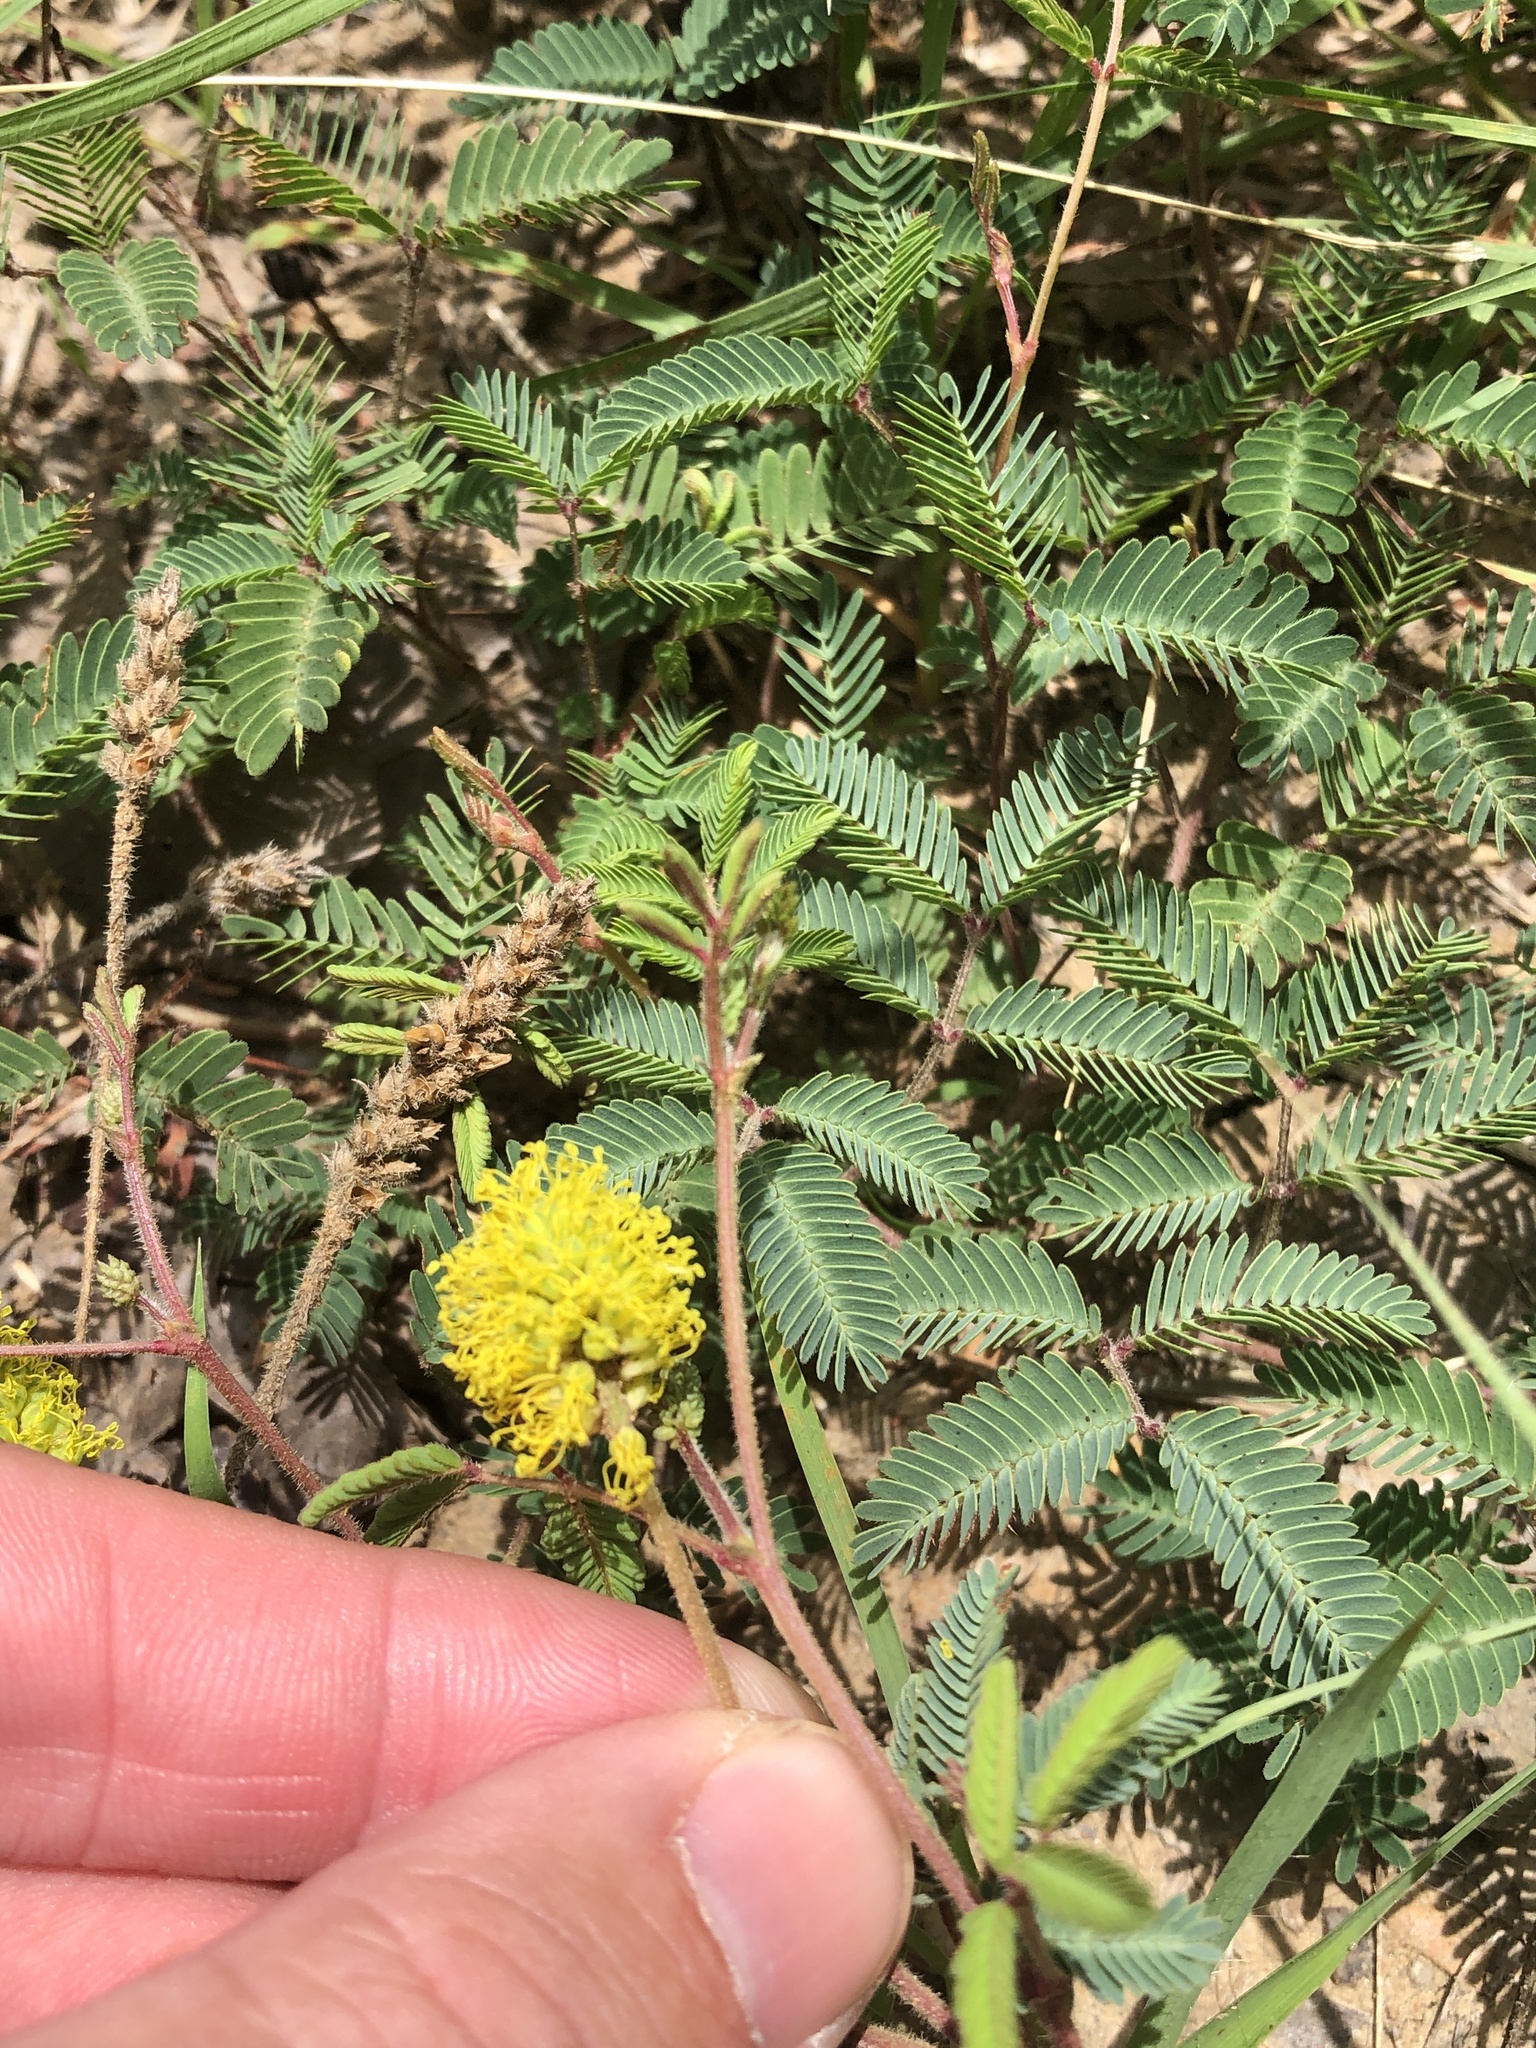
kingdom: Plantae
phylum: Tracheophyta
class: Magnoliopsida
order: Fabales
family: Fabaceae
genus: Neptunia
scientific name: Neptunia lutea
